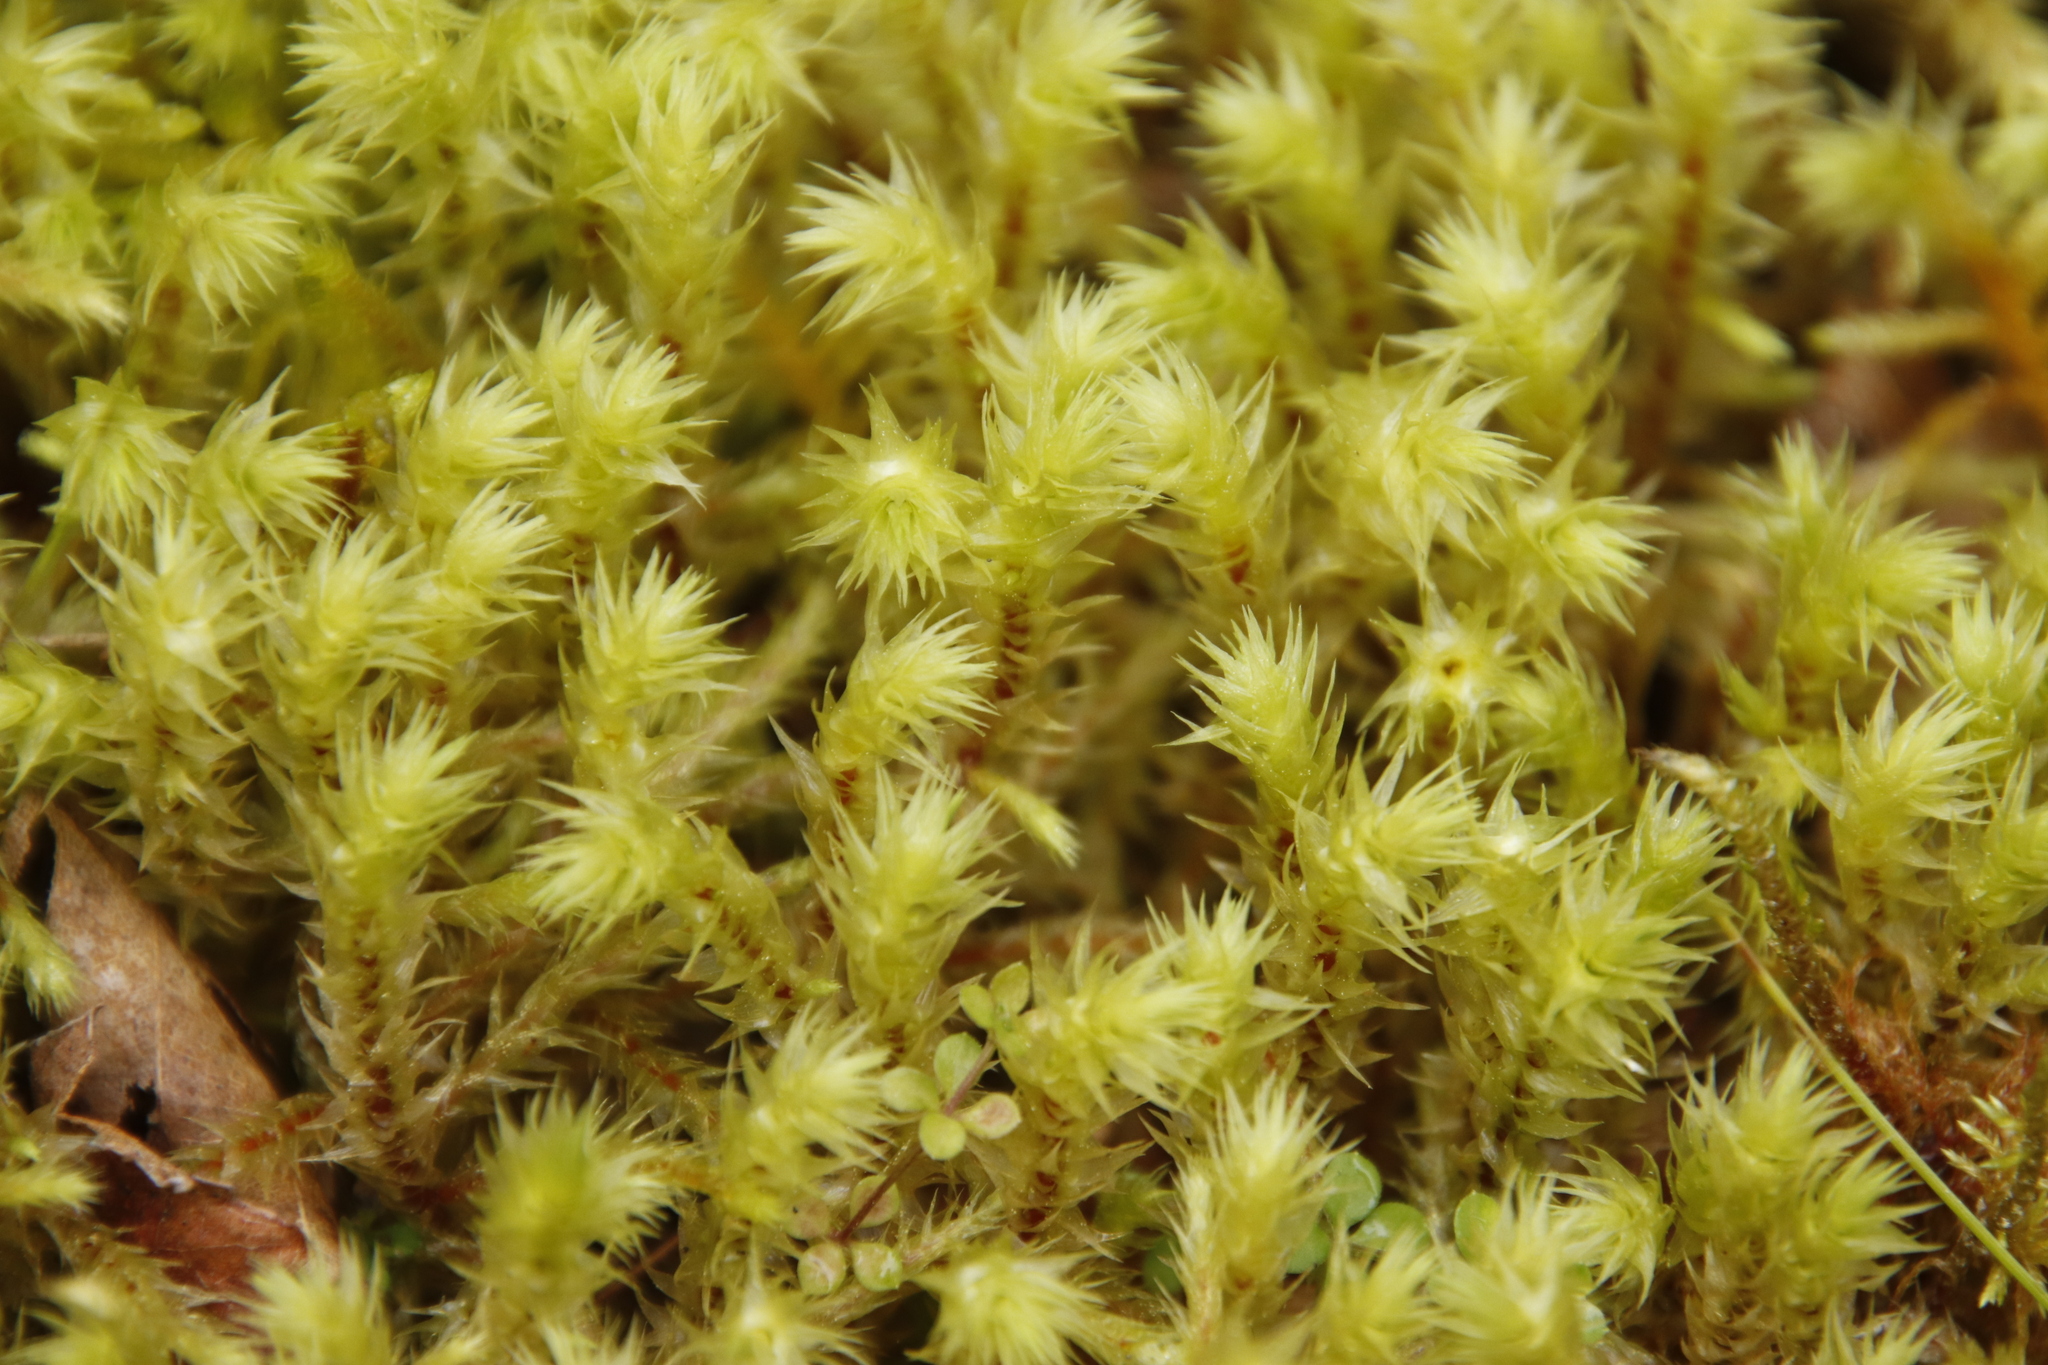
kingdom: Plantae
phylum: Bryophyta
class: Bryopsida
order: Hypnales
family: Hylocomiaceae
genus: Hylocomiadelphus
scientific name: Hylocomiadelphus triquetrus
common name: Rough goose neck moss
